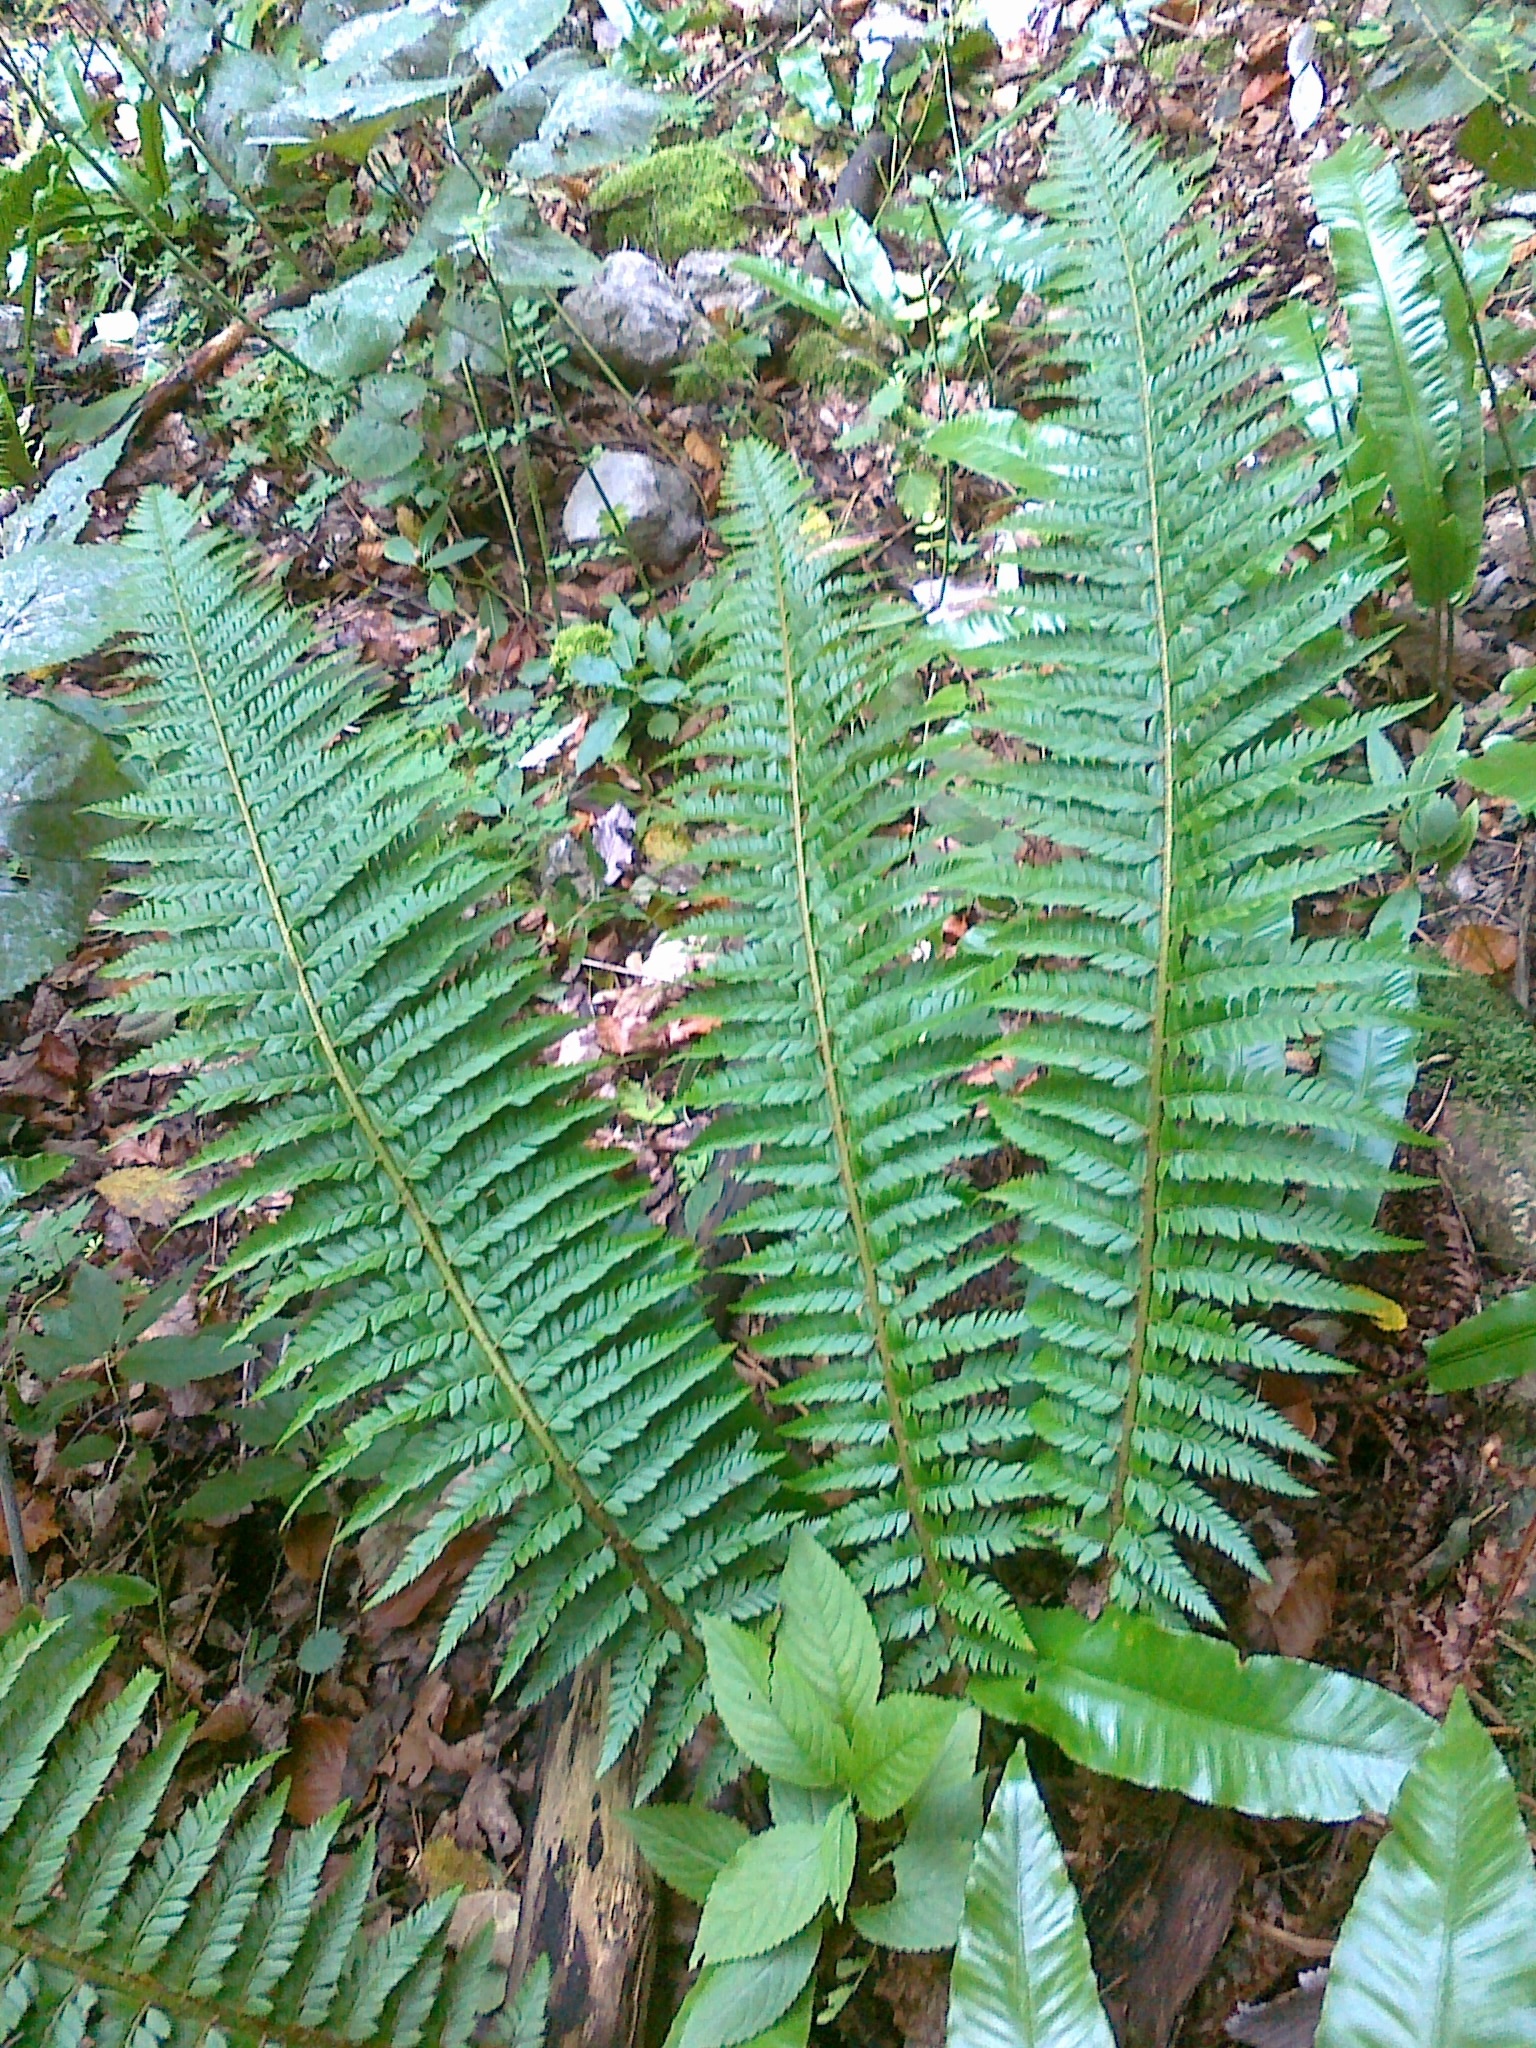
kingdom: Plantae
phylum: Tracheophyta
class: Polypodiopsida
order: Polypodiales
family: Dryopteridaceae
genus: Polystichum
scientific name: Polystichum aculeatum
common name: Hard shield-fern
